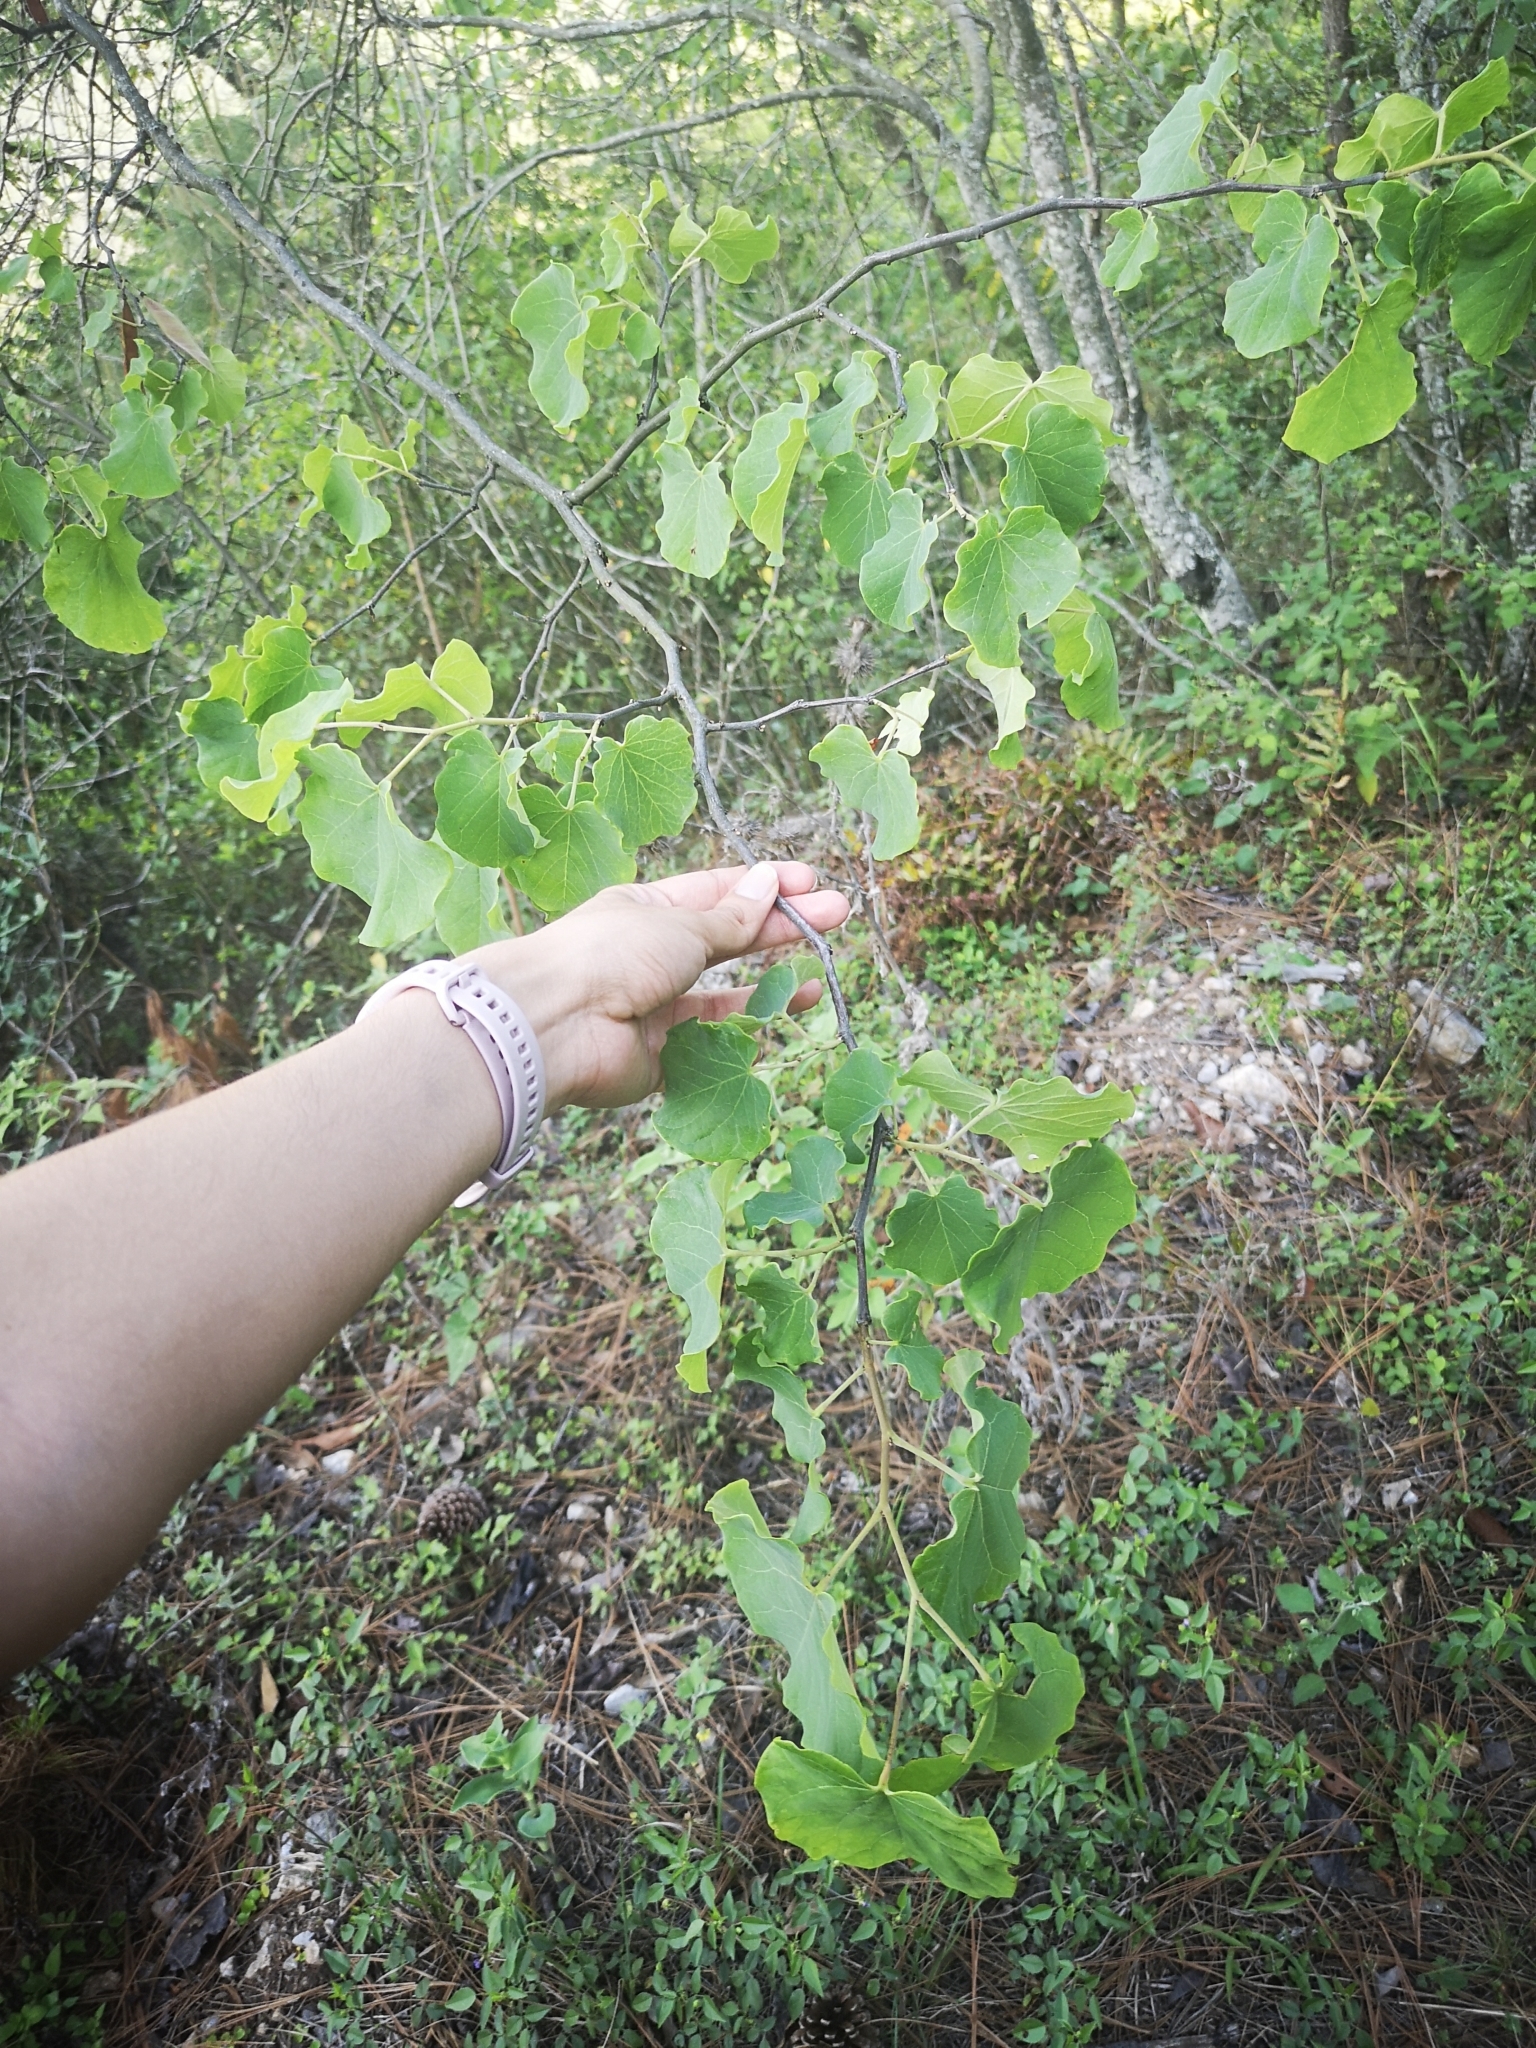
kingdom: Plantae
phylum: Tracheophyta
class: Magnoliopsida
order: Fabales
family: Fabaceae
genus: Cercis
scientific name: Cercis canadensis
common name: Eastern redbud
